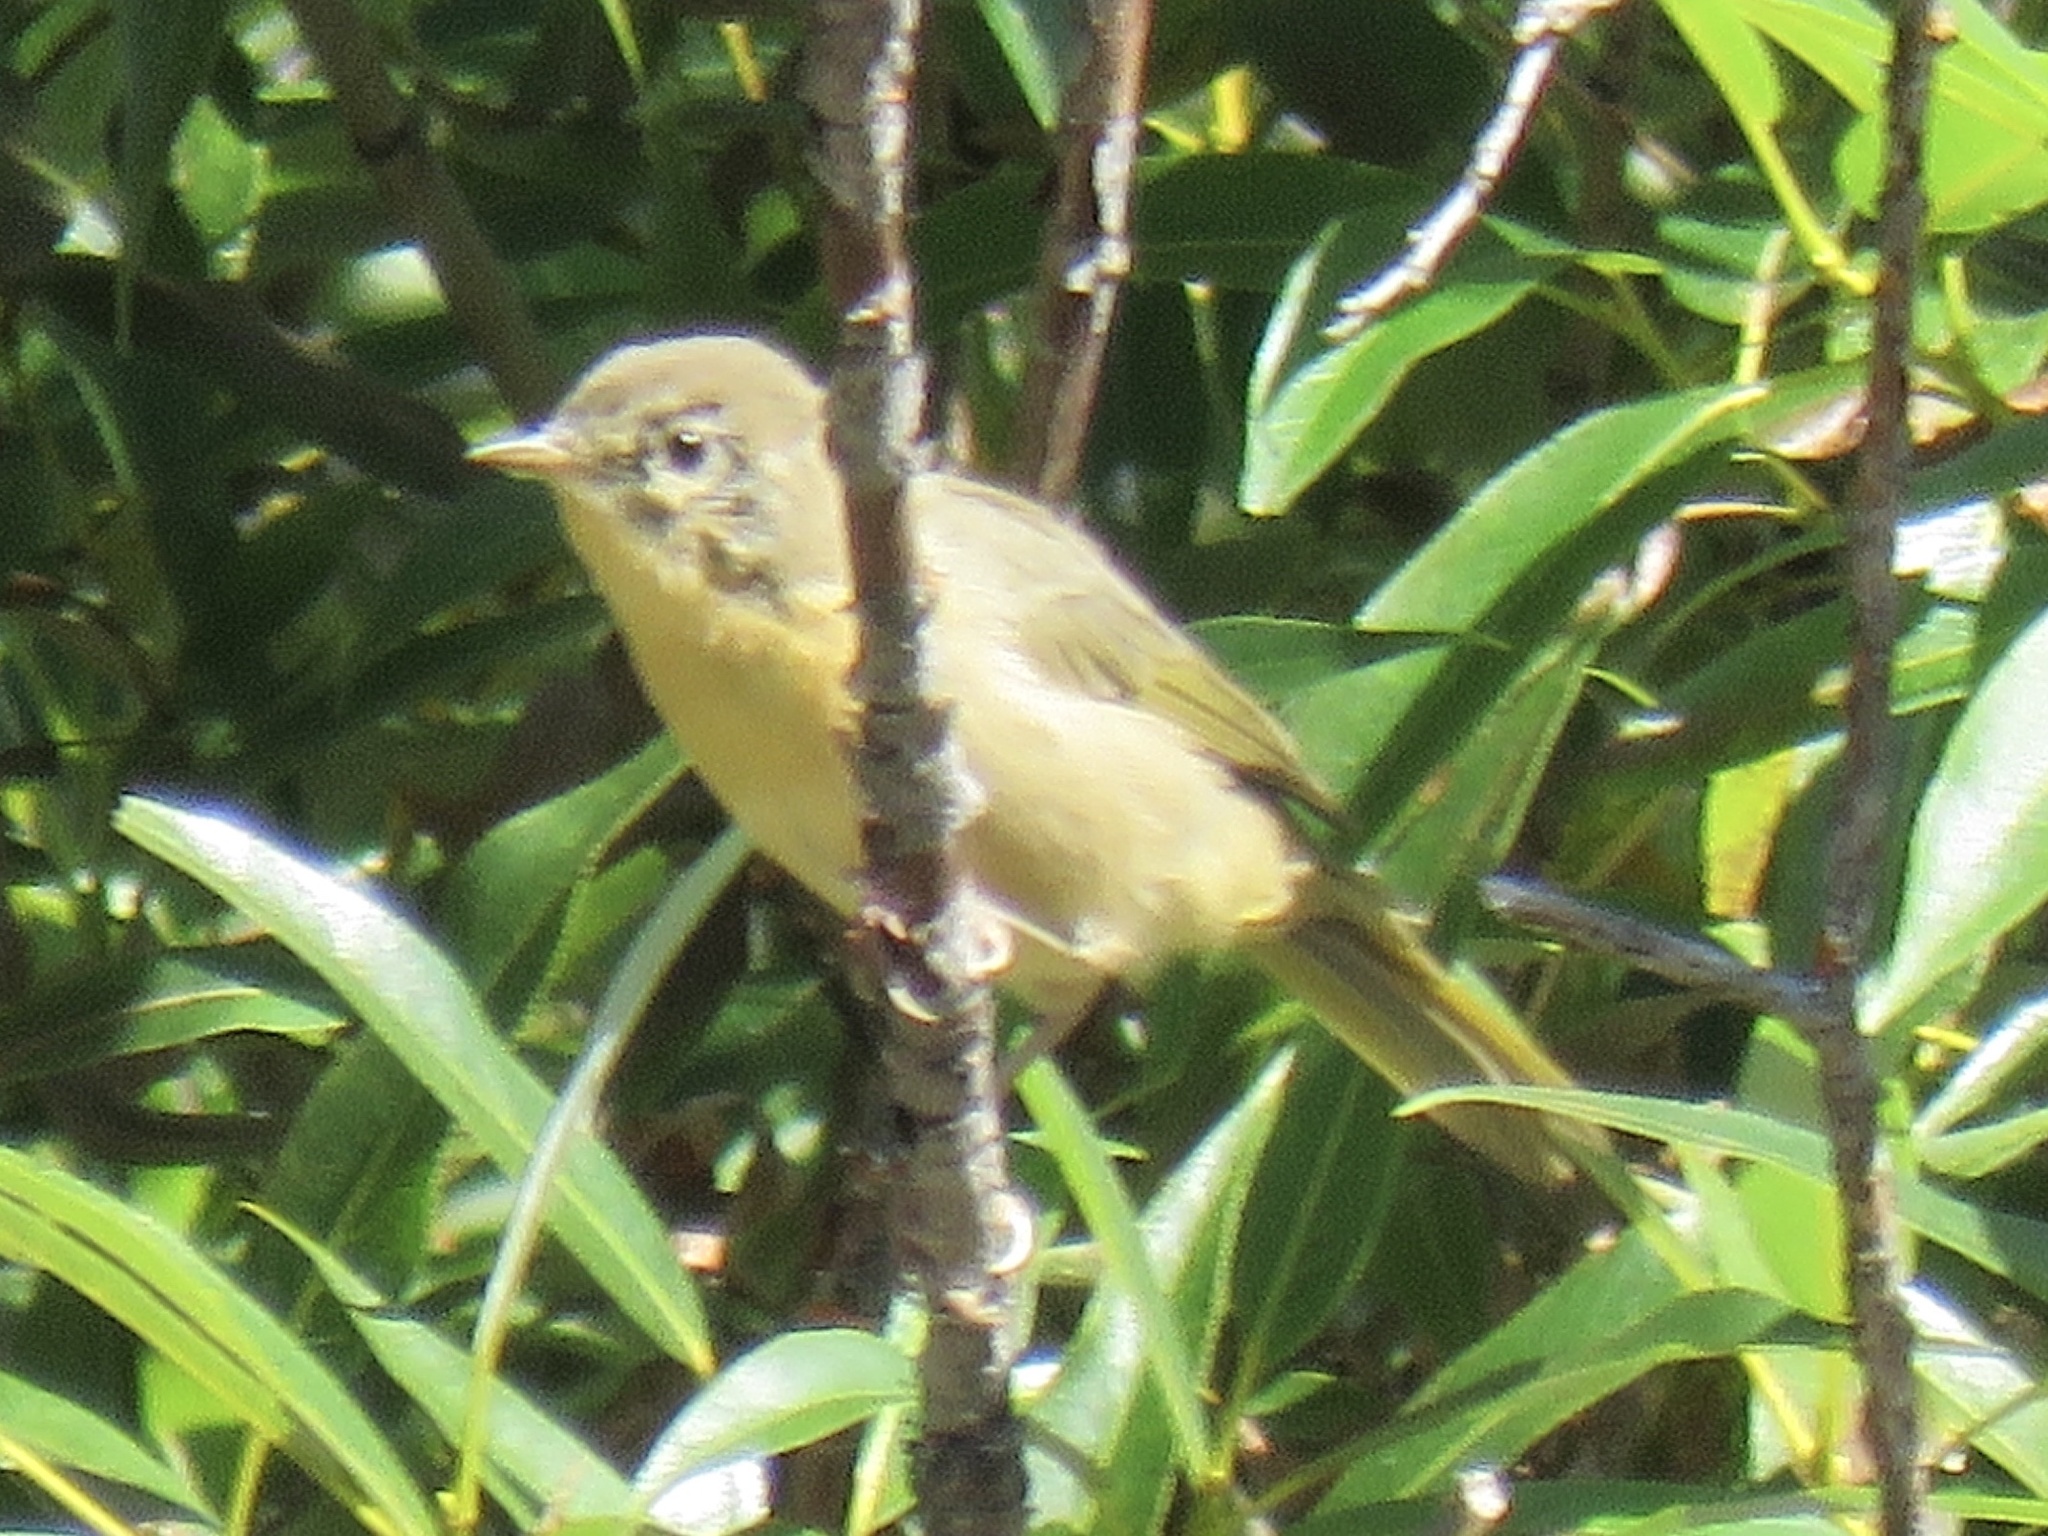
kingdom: Animalia
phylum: Chordata
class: Aves
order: Passeriformes
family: Parulidae
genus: Geothlypis
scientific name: Geothlypis trichas
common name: Common yellowthroat
